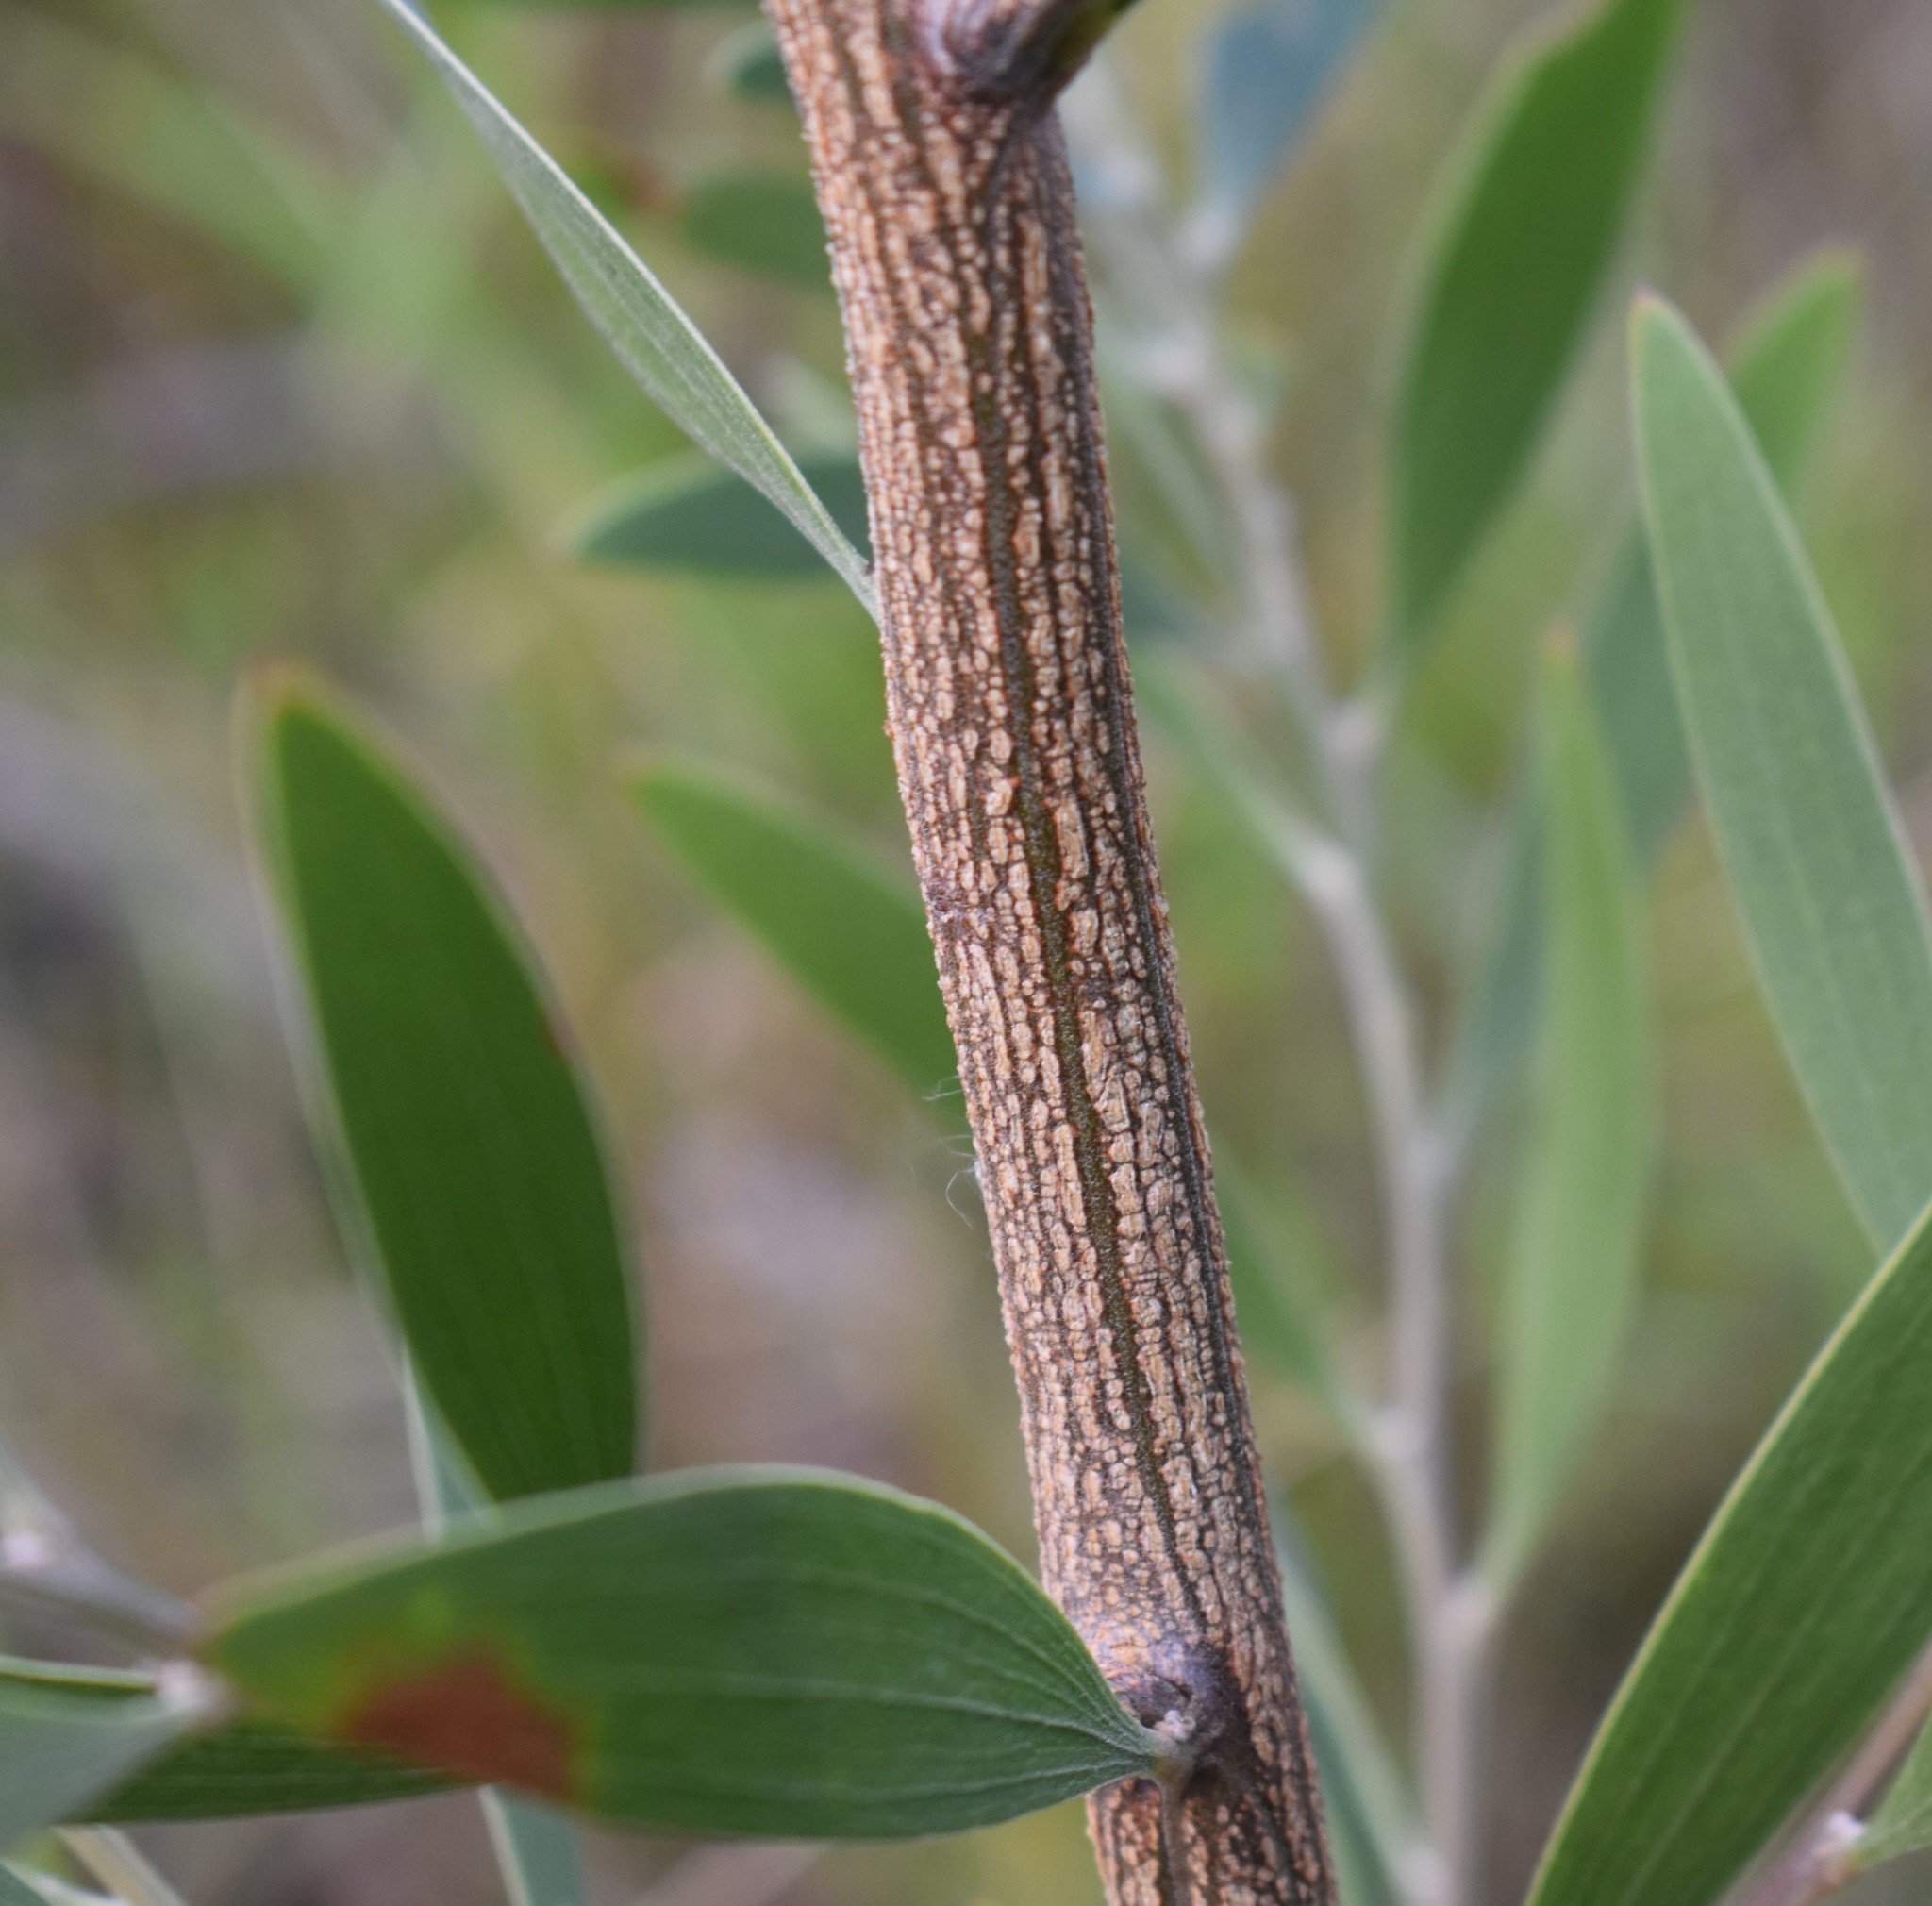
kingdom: Plantae
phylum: Tracheophyta
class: Magnoliopsida
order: Fabales
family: Fabaceae
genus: Acacia
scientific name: Acacia melanoxylon
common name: Blackwood
